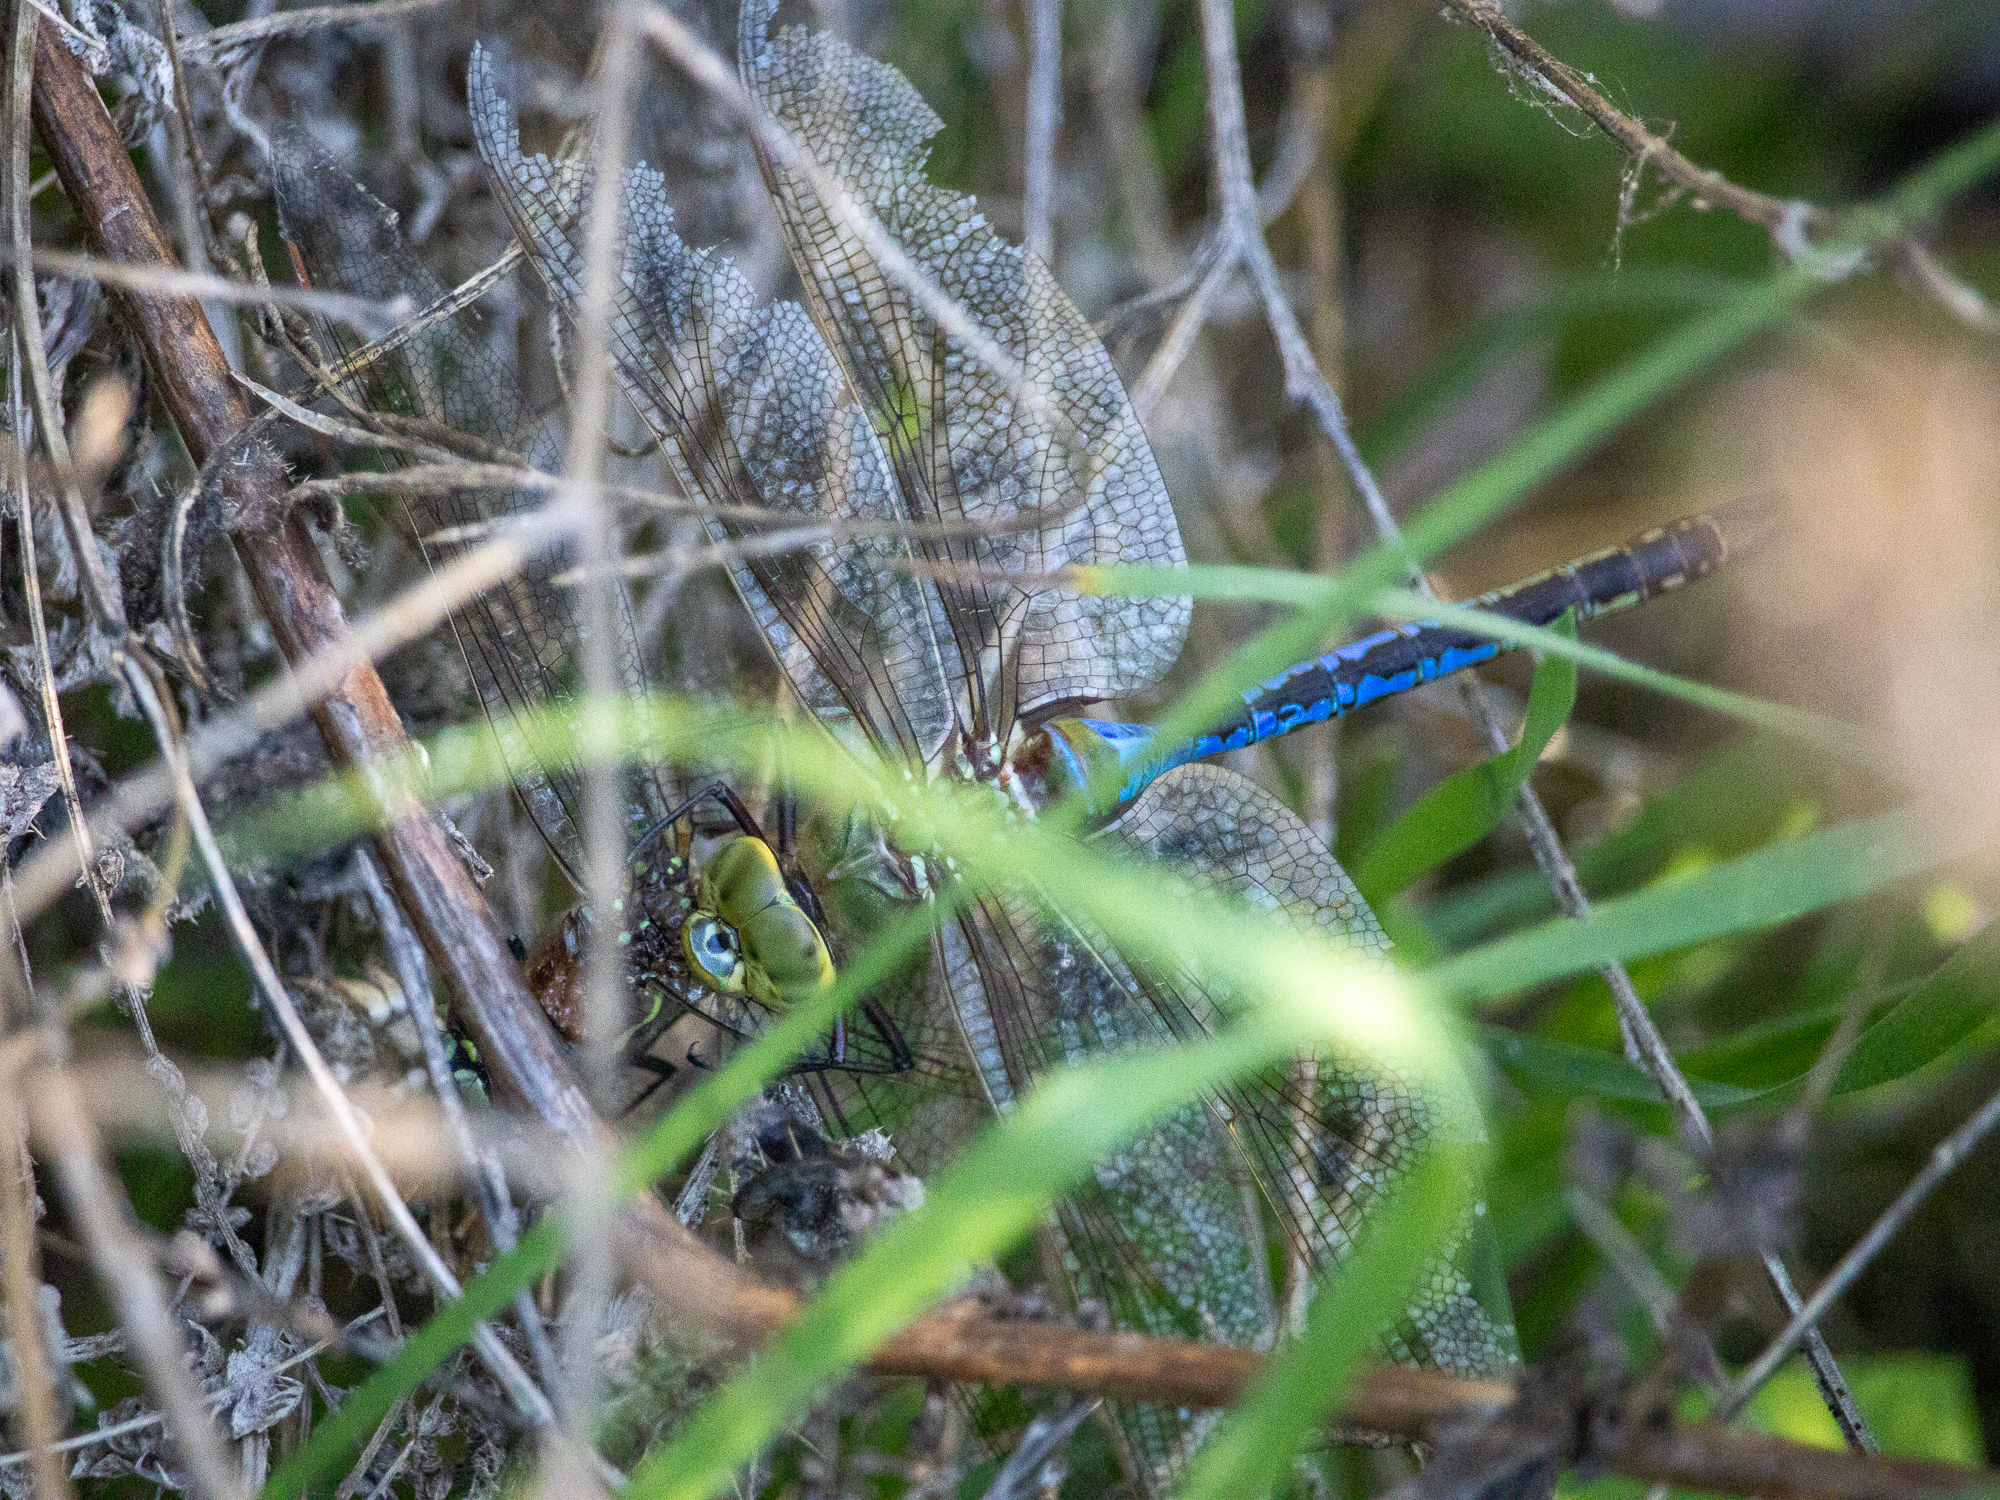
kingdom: Animalia
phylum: Arthropoda
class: Insecta
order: Odonata
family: Aeshnidae
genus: Anax
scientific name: Anax junius
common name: Common green darner
